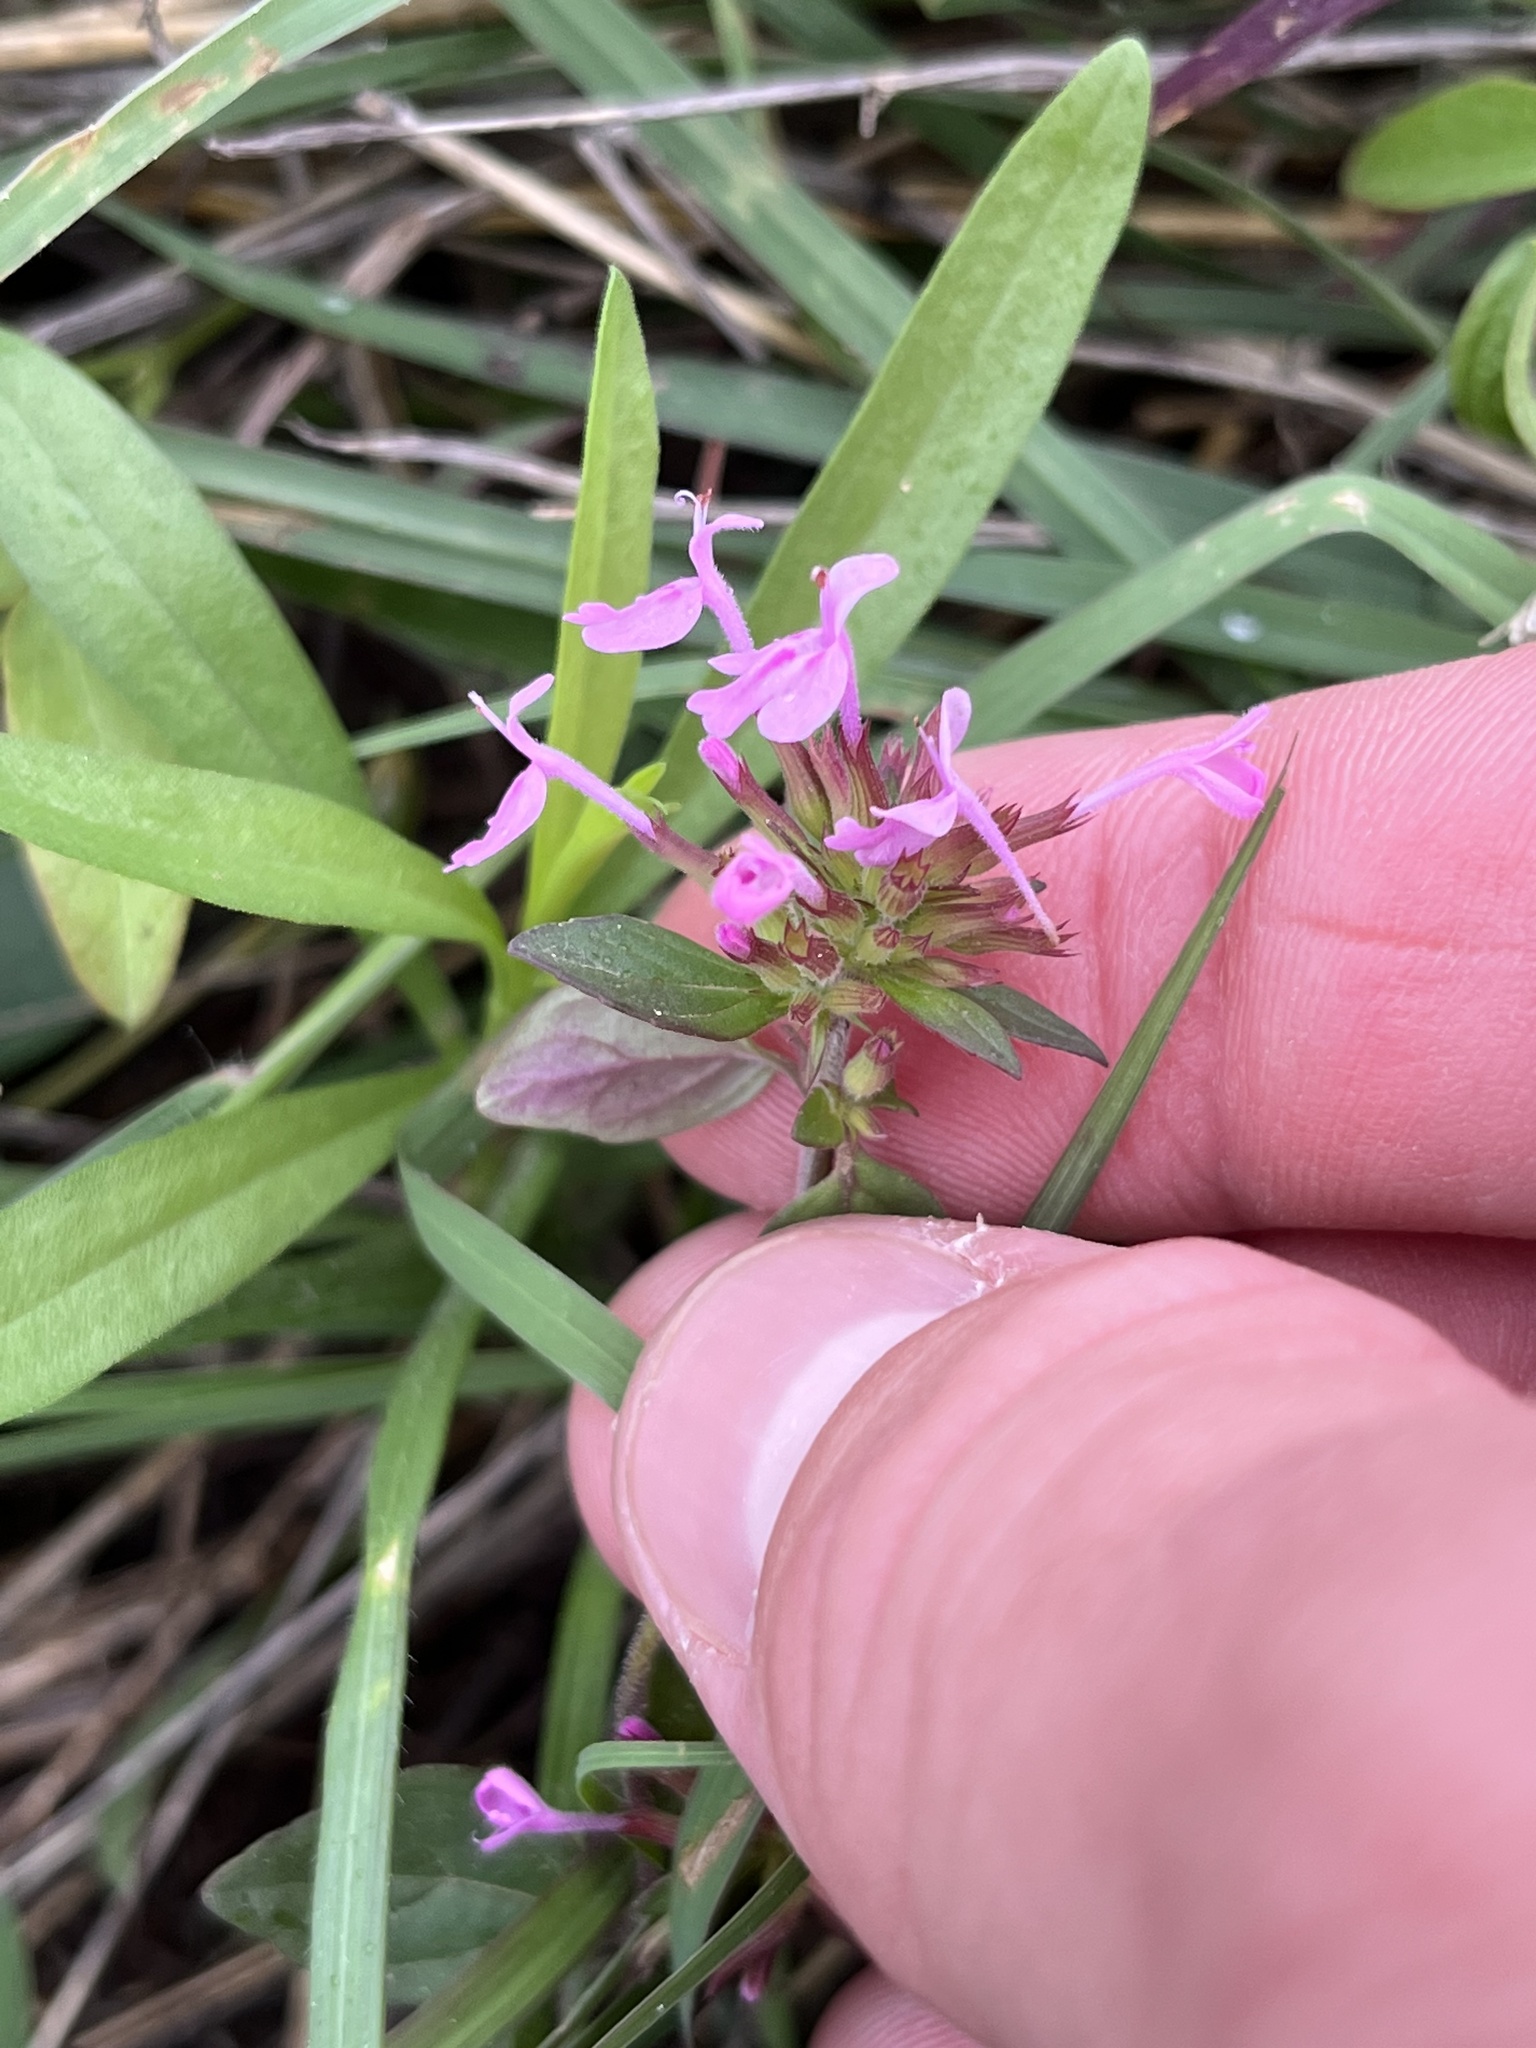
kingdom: Plantae
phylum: Tracheophyta
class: Magnoliopsida
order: Lamiales
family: Lamiaceae
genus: Hedeoma
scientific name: Hedeoma acinoides
